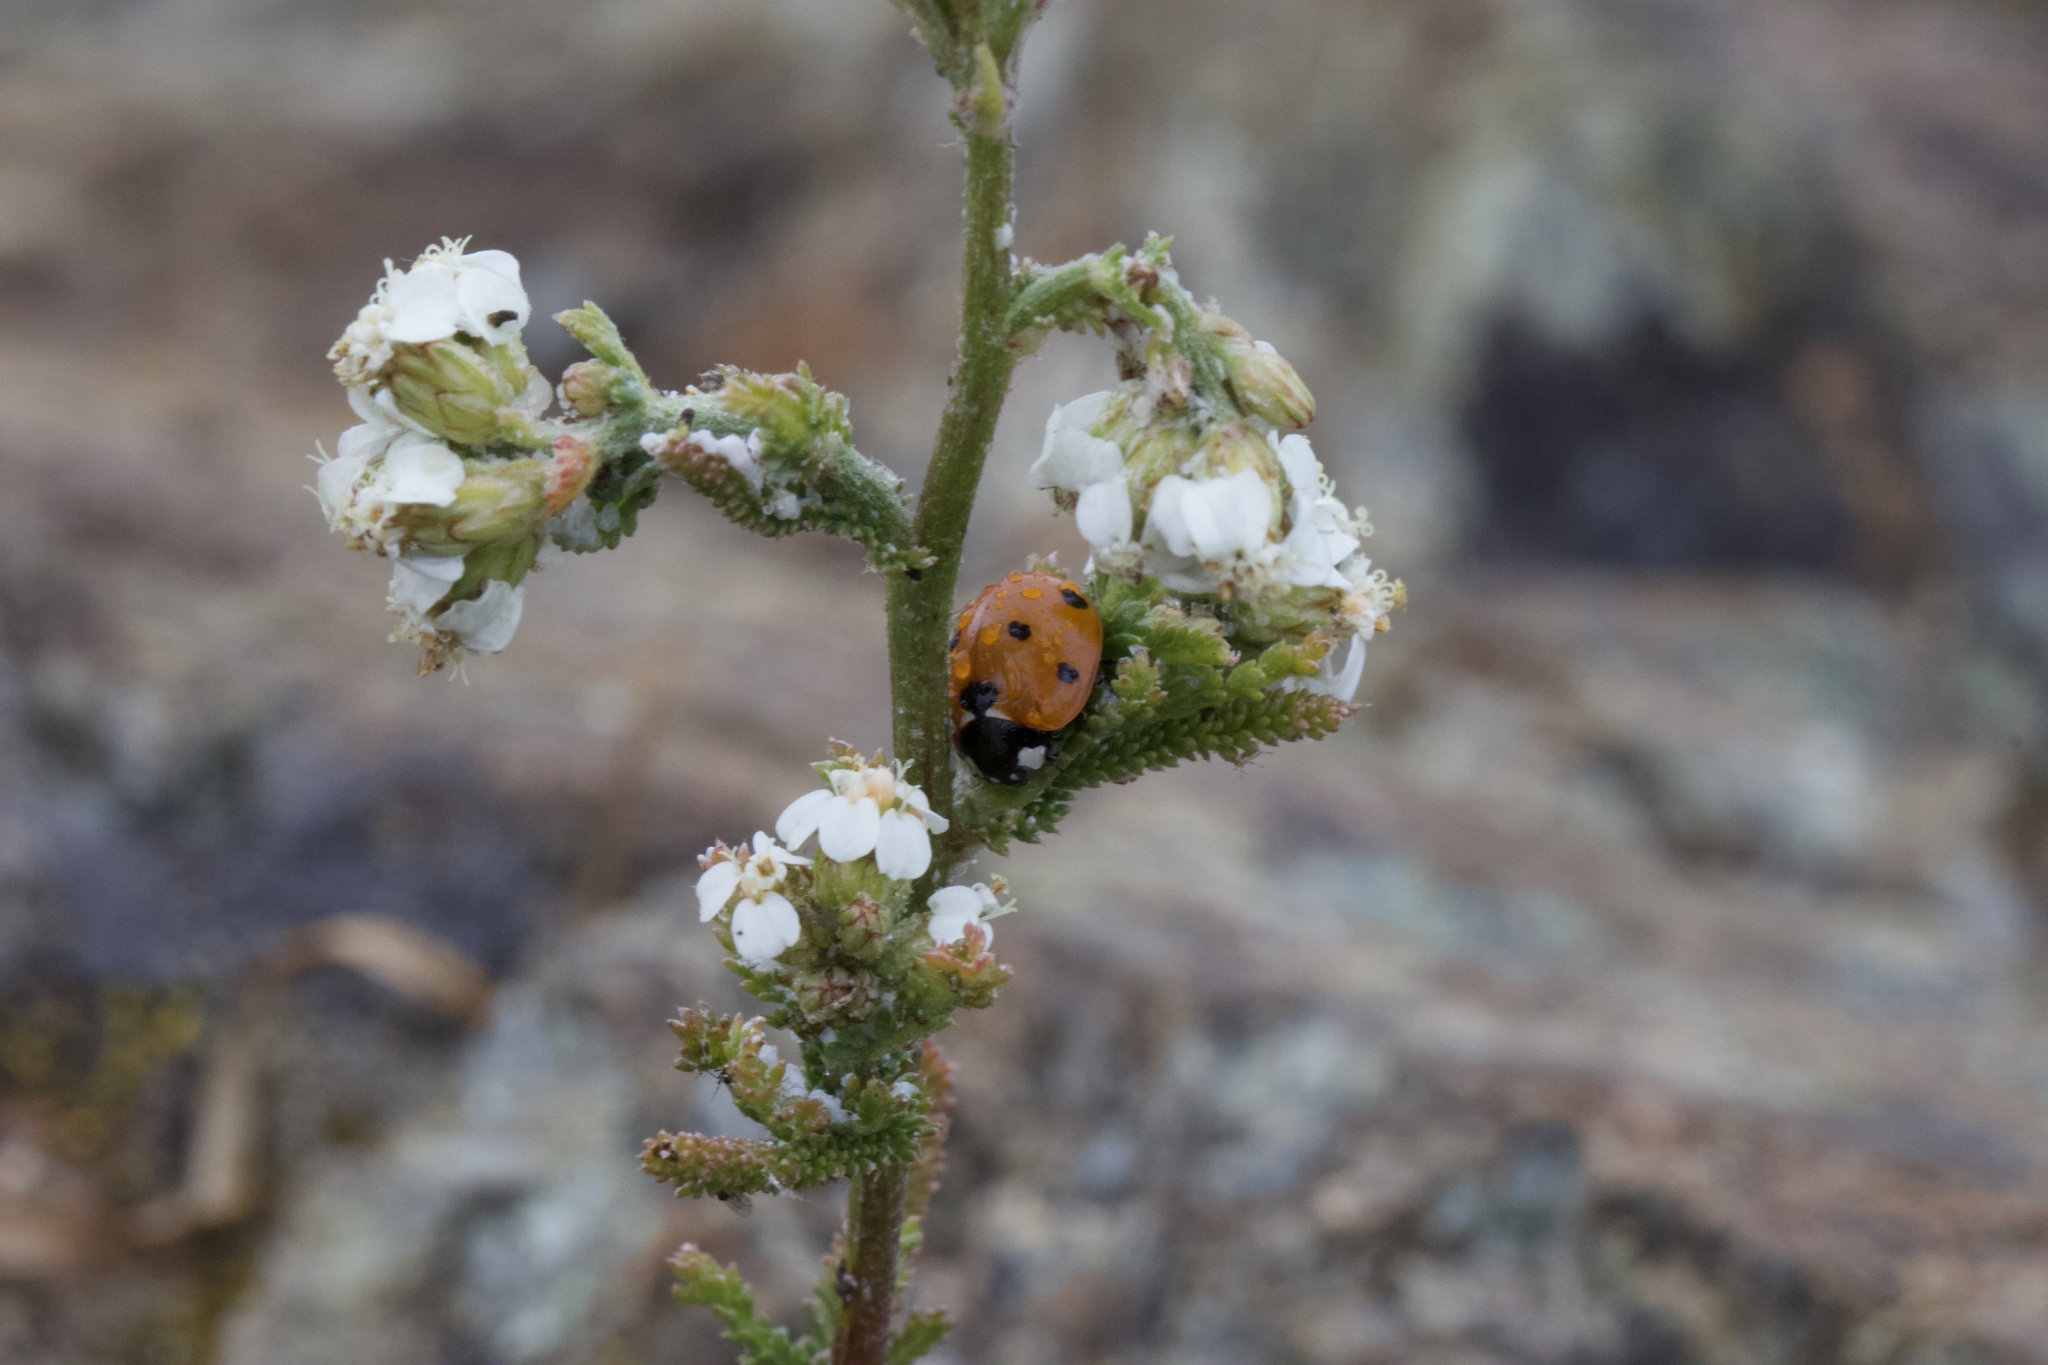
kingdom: Animalia
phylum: Arthropoda
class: Insecta
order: Coleoptera
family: Coccinellidae
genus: Coccinella
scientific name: Coccinella septempunctata
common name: Sevenspotted lady beetle
